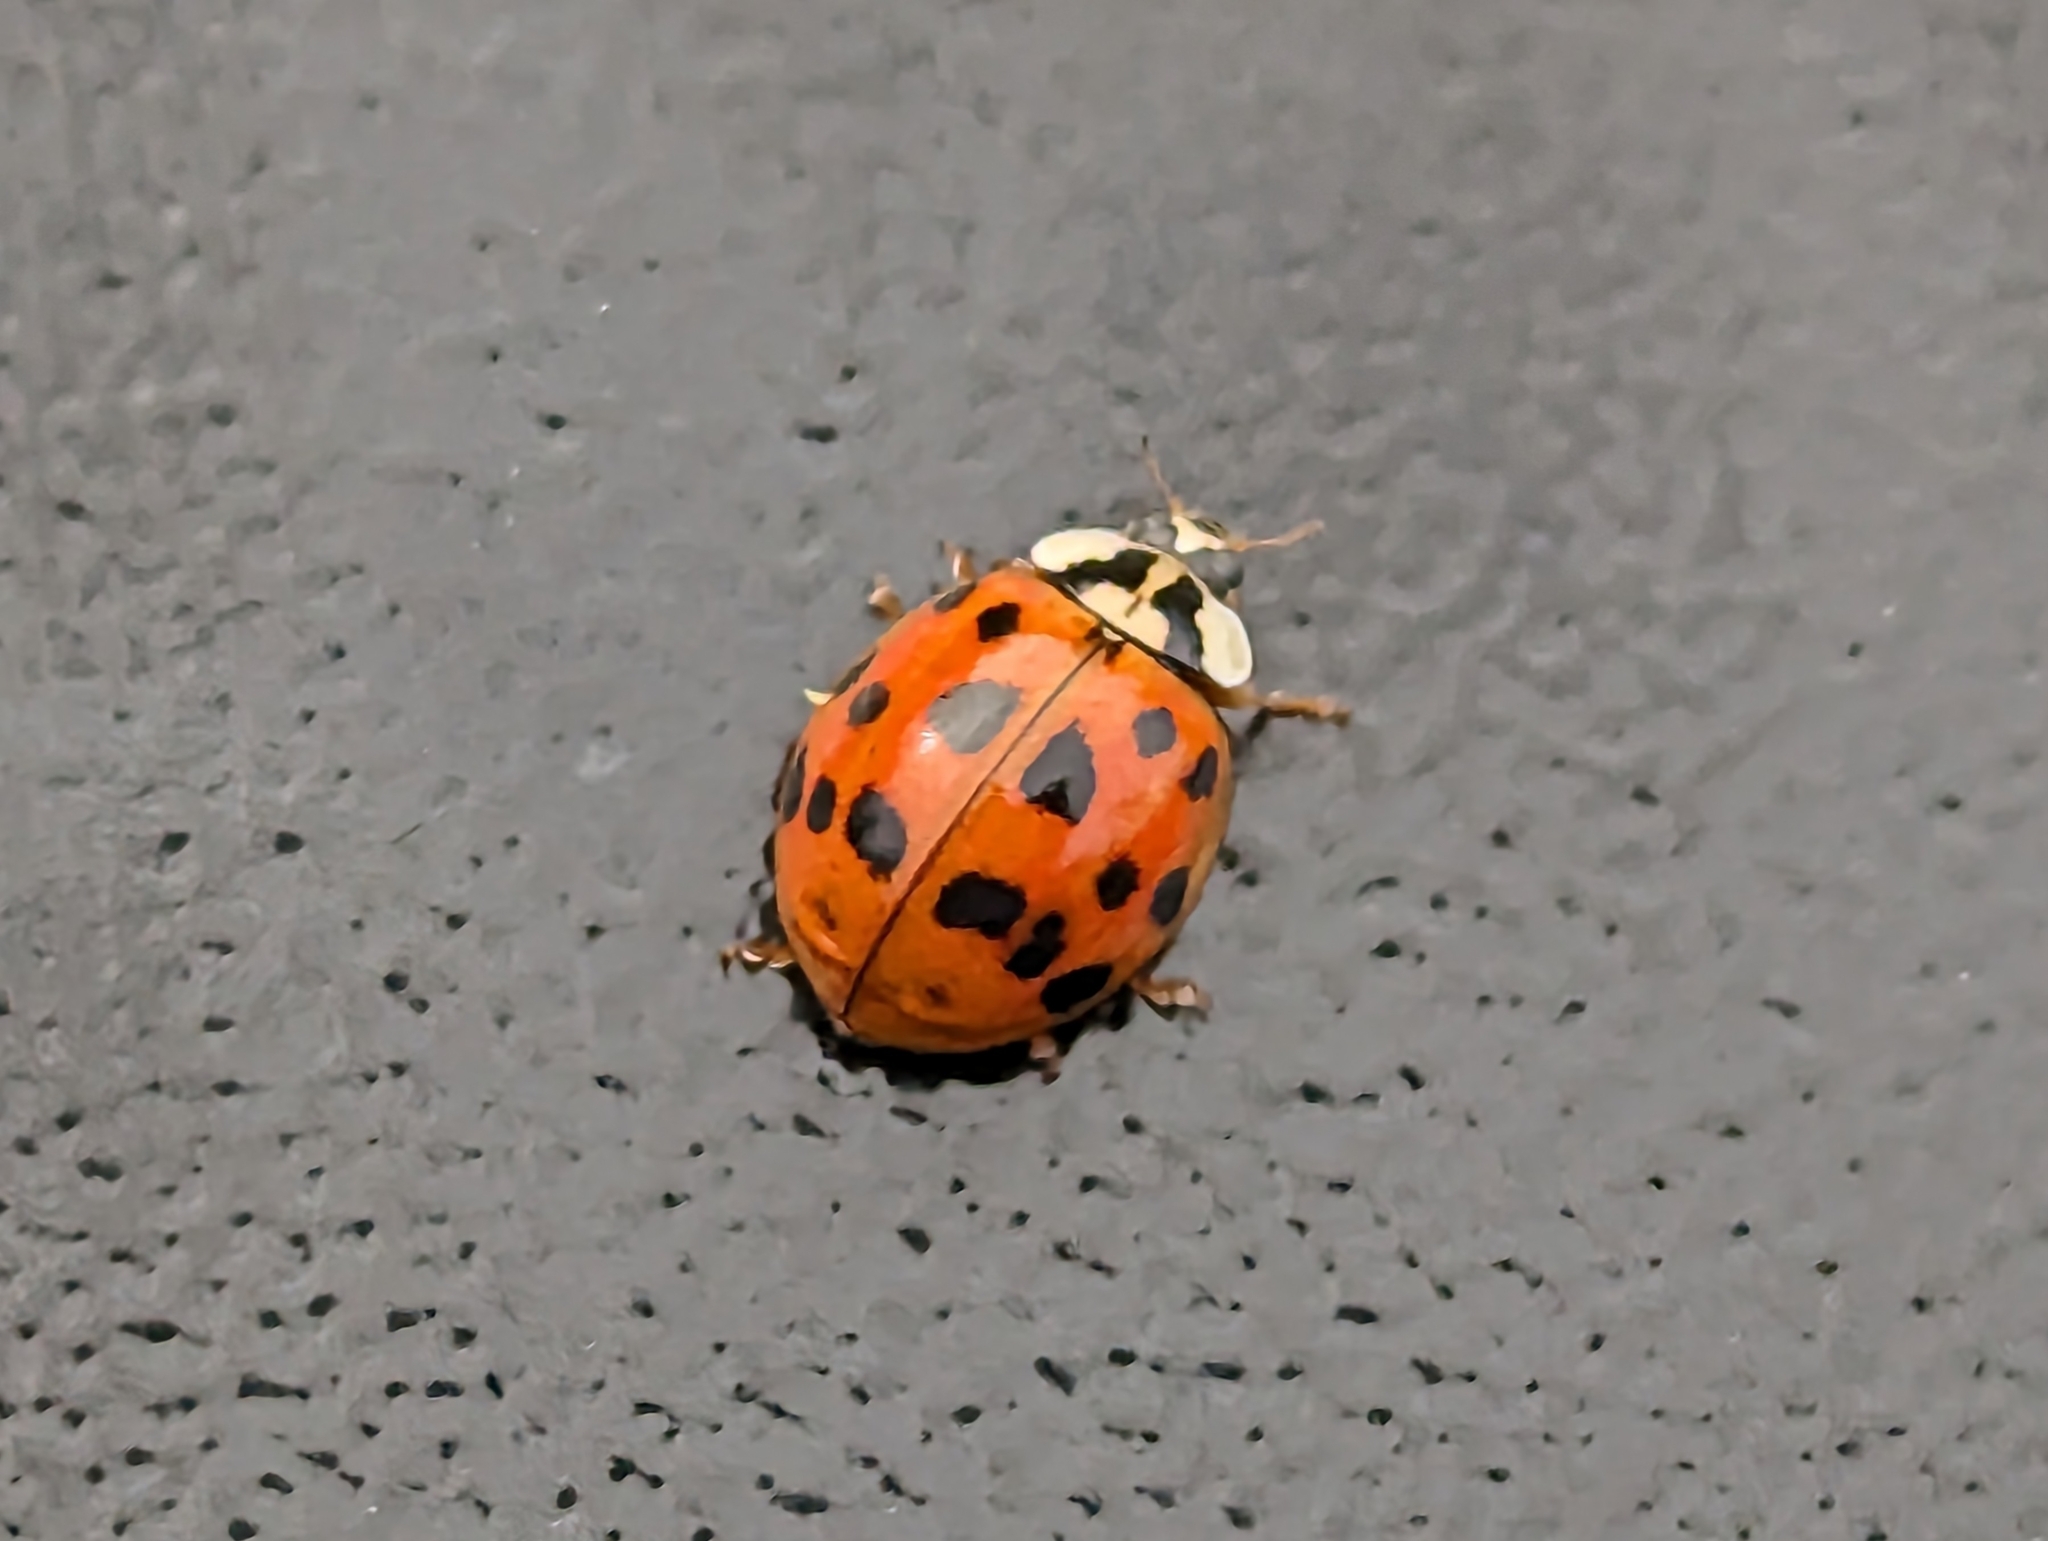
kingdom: Animalia
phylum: Arthropoda
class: Insecta
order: Coleoptera
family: Coccinellidae
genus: Harmonia
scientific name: Harmonia axyridis
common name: Harlequin ladybird
